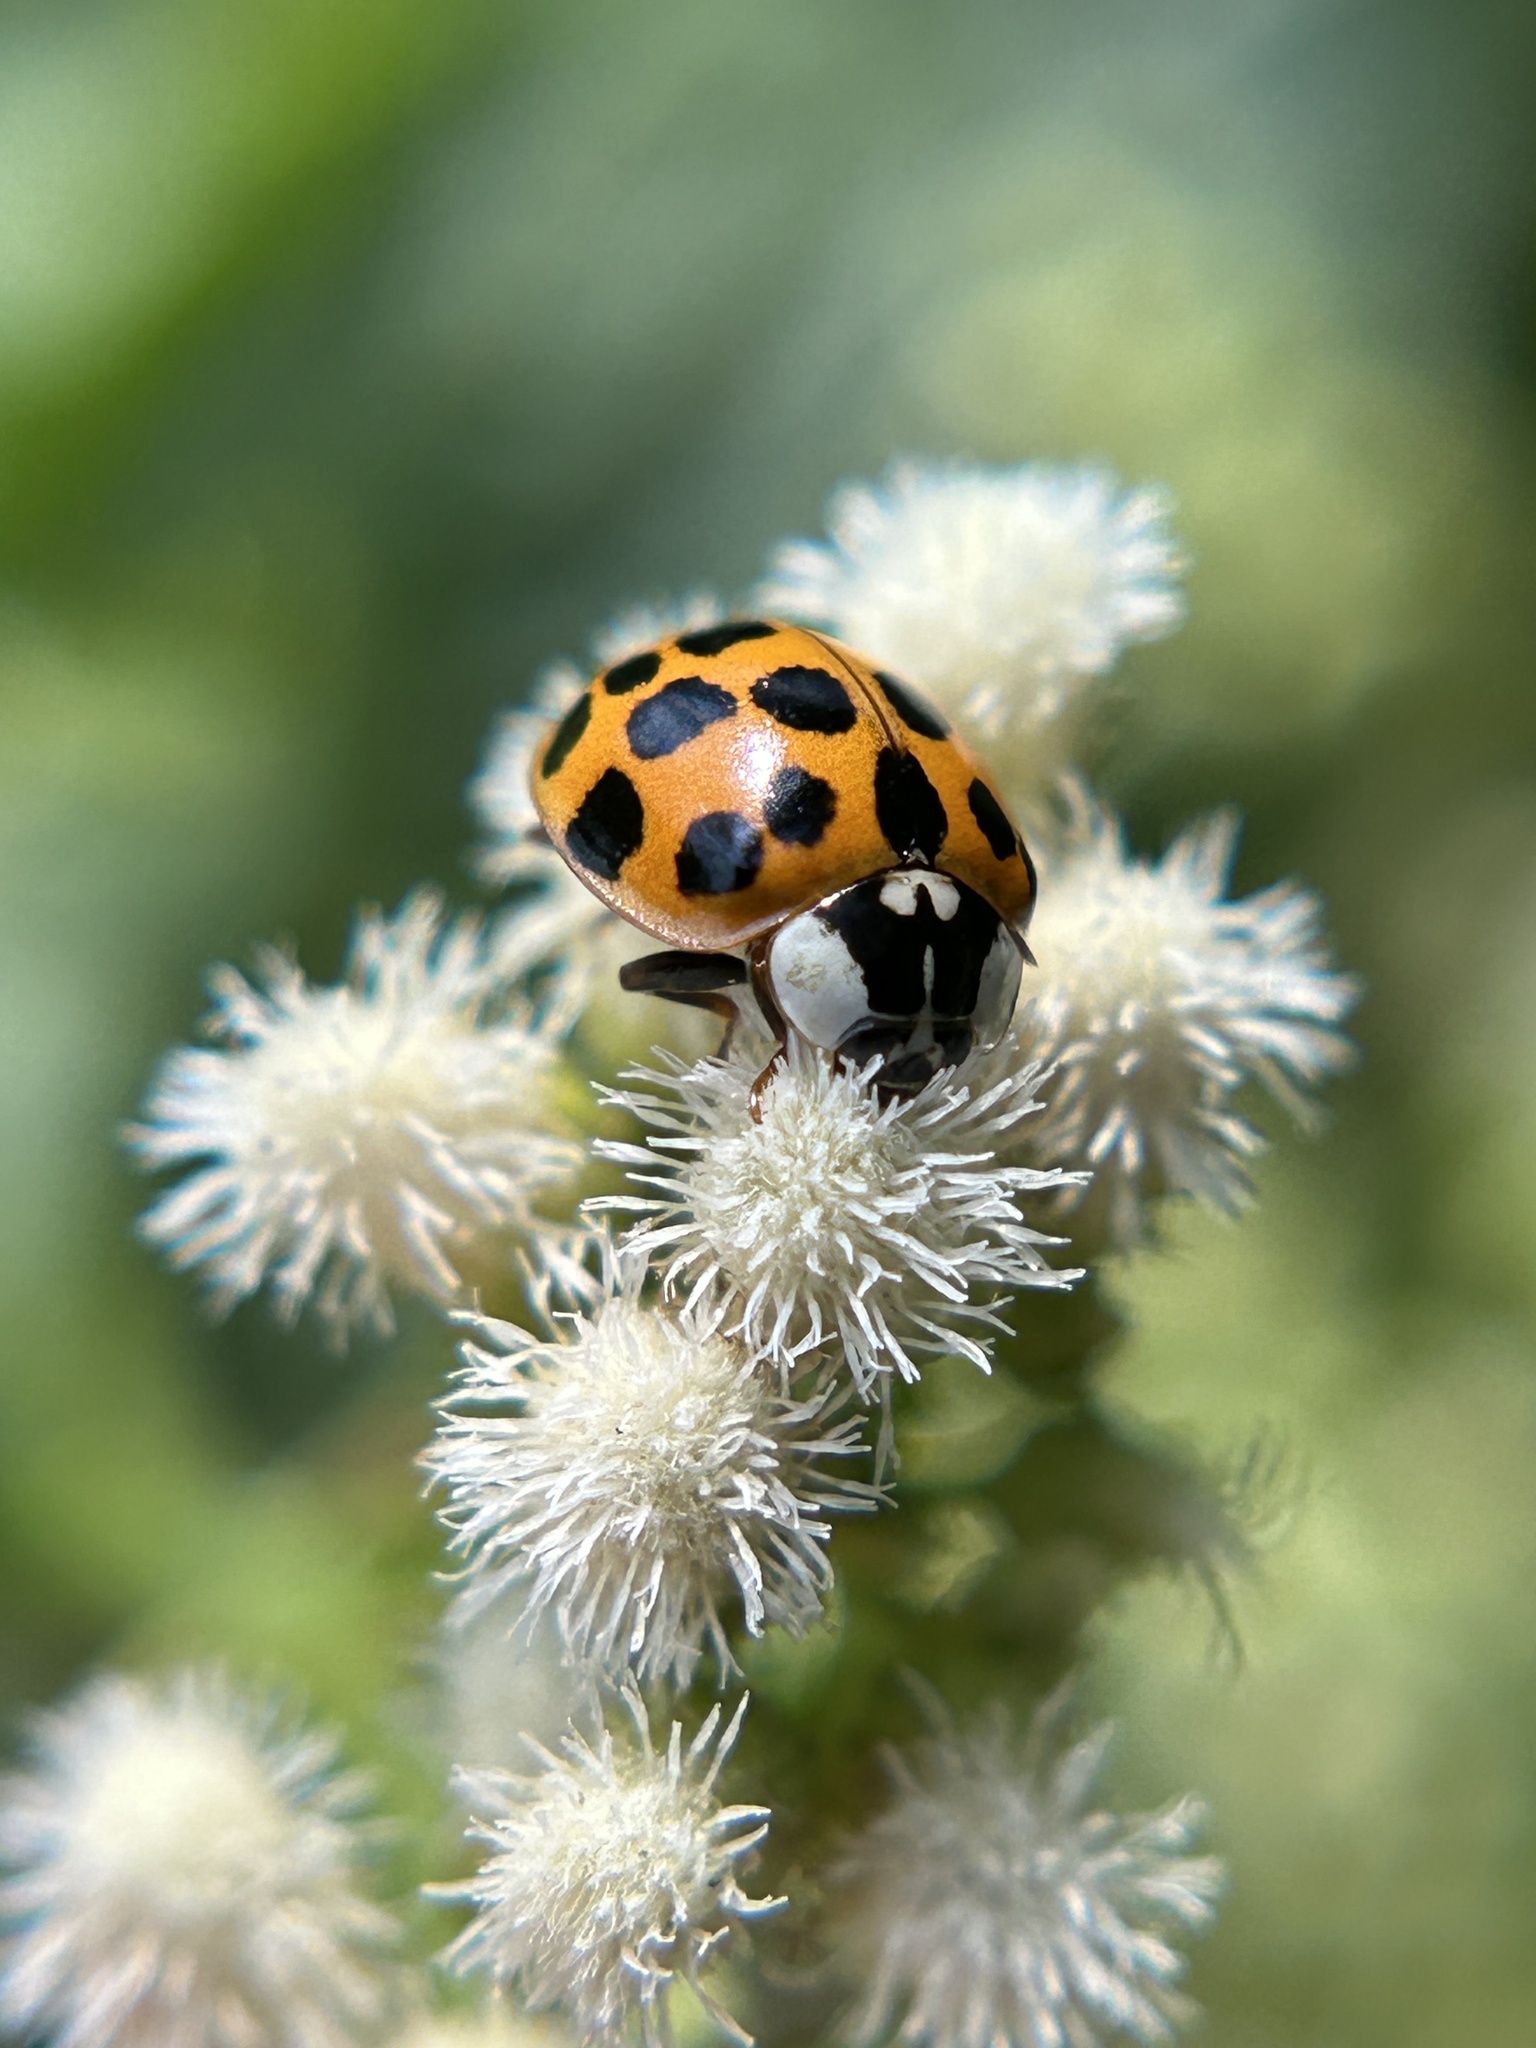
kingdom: Animalia
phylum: Arthropoda
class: Insecta
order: Coleoptera
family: Coccinellidae
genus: Harmonia
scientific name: Harmonia axyridis
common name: Harlequin ladybird
